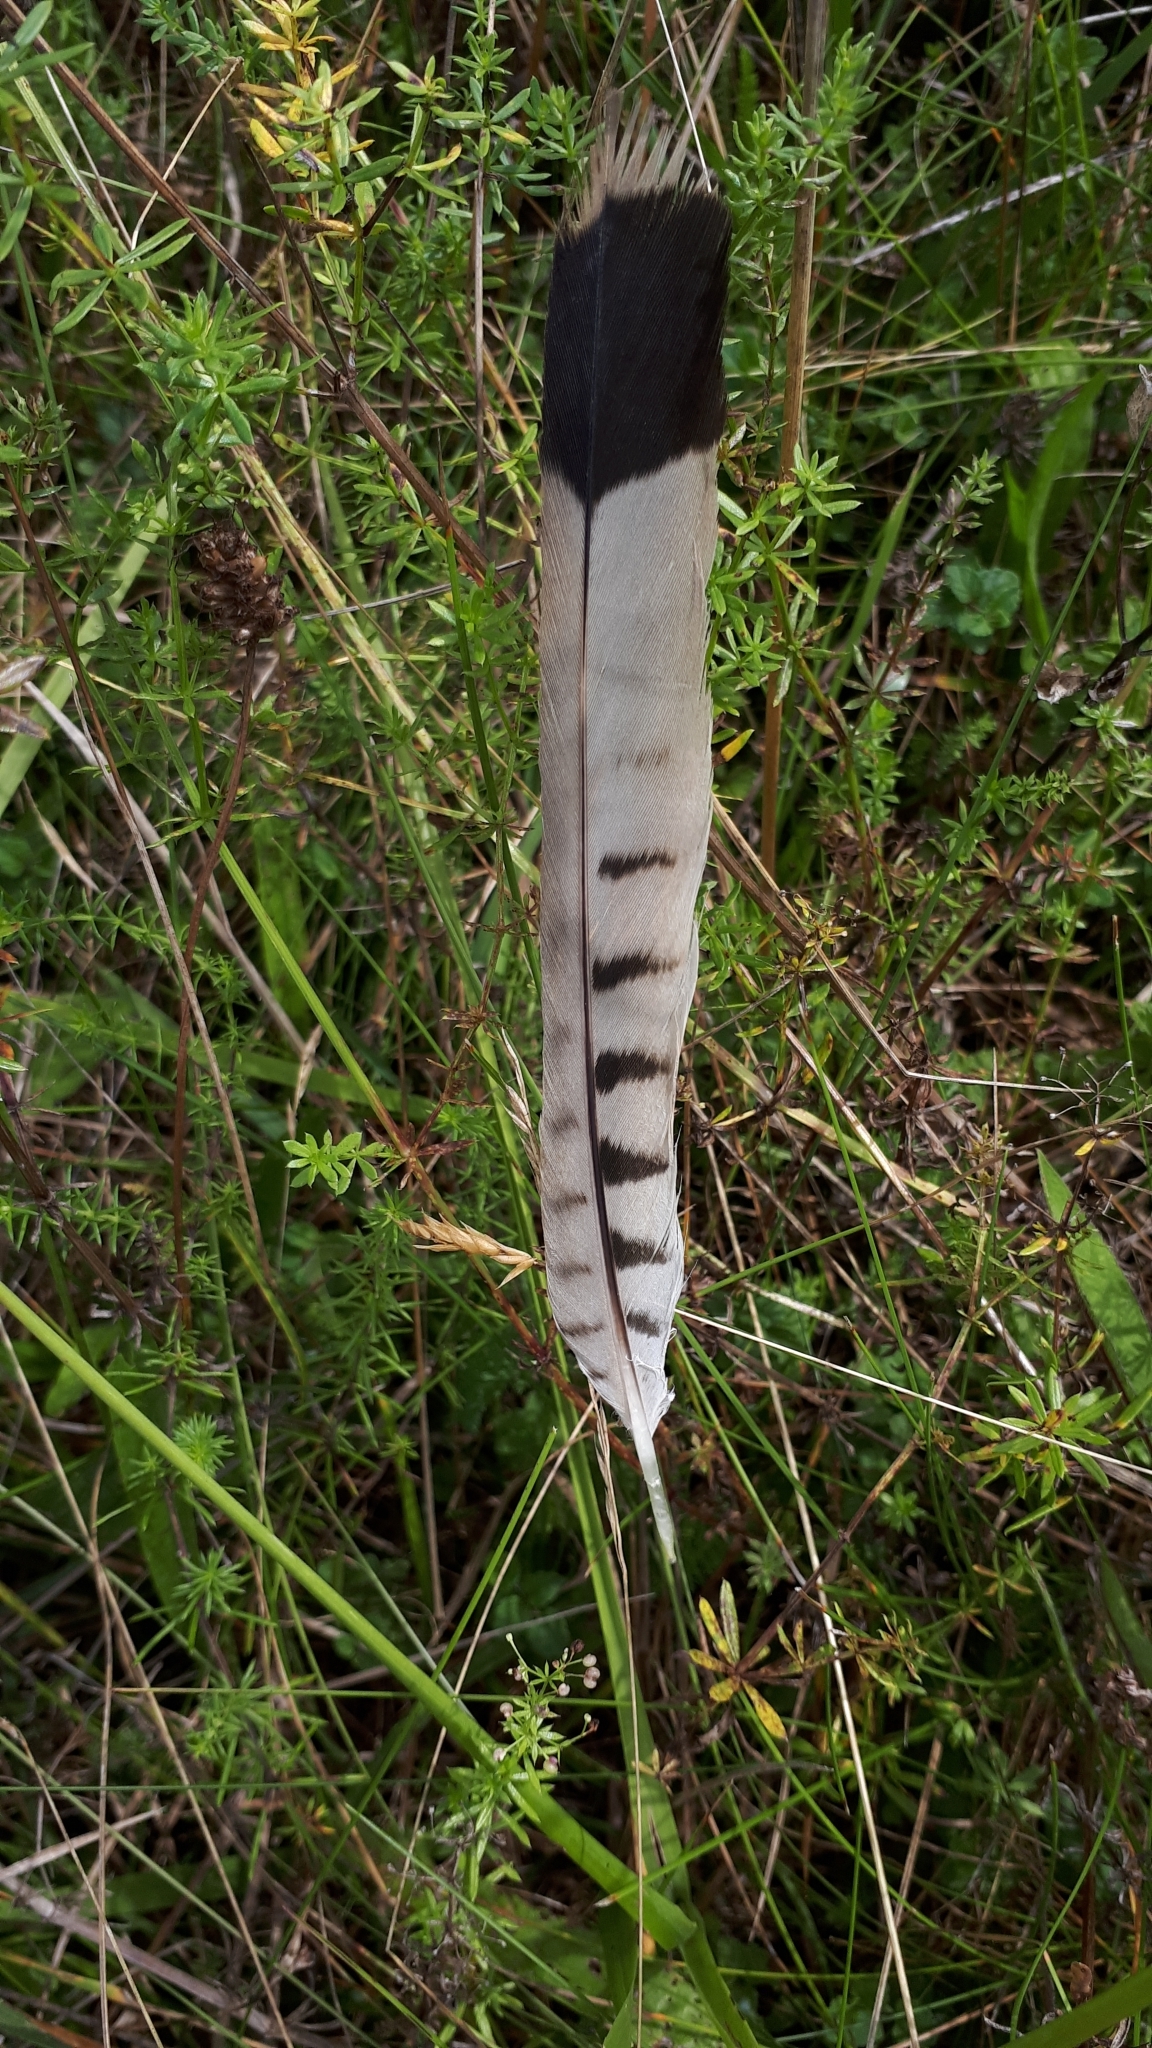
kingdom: Animalia
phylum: Chordata
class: Aves
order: Falconiformes
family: Falconidae
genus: Falco
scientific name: Falco tinnunculus
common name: Common kestrel
